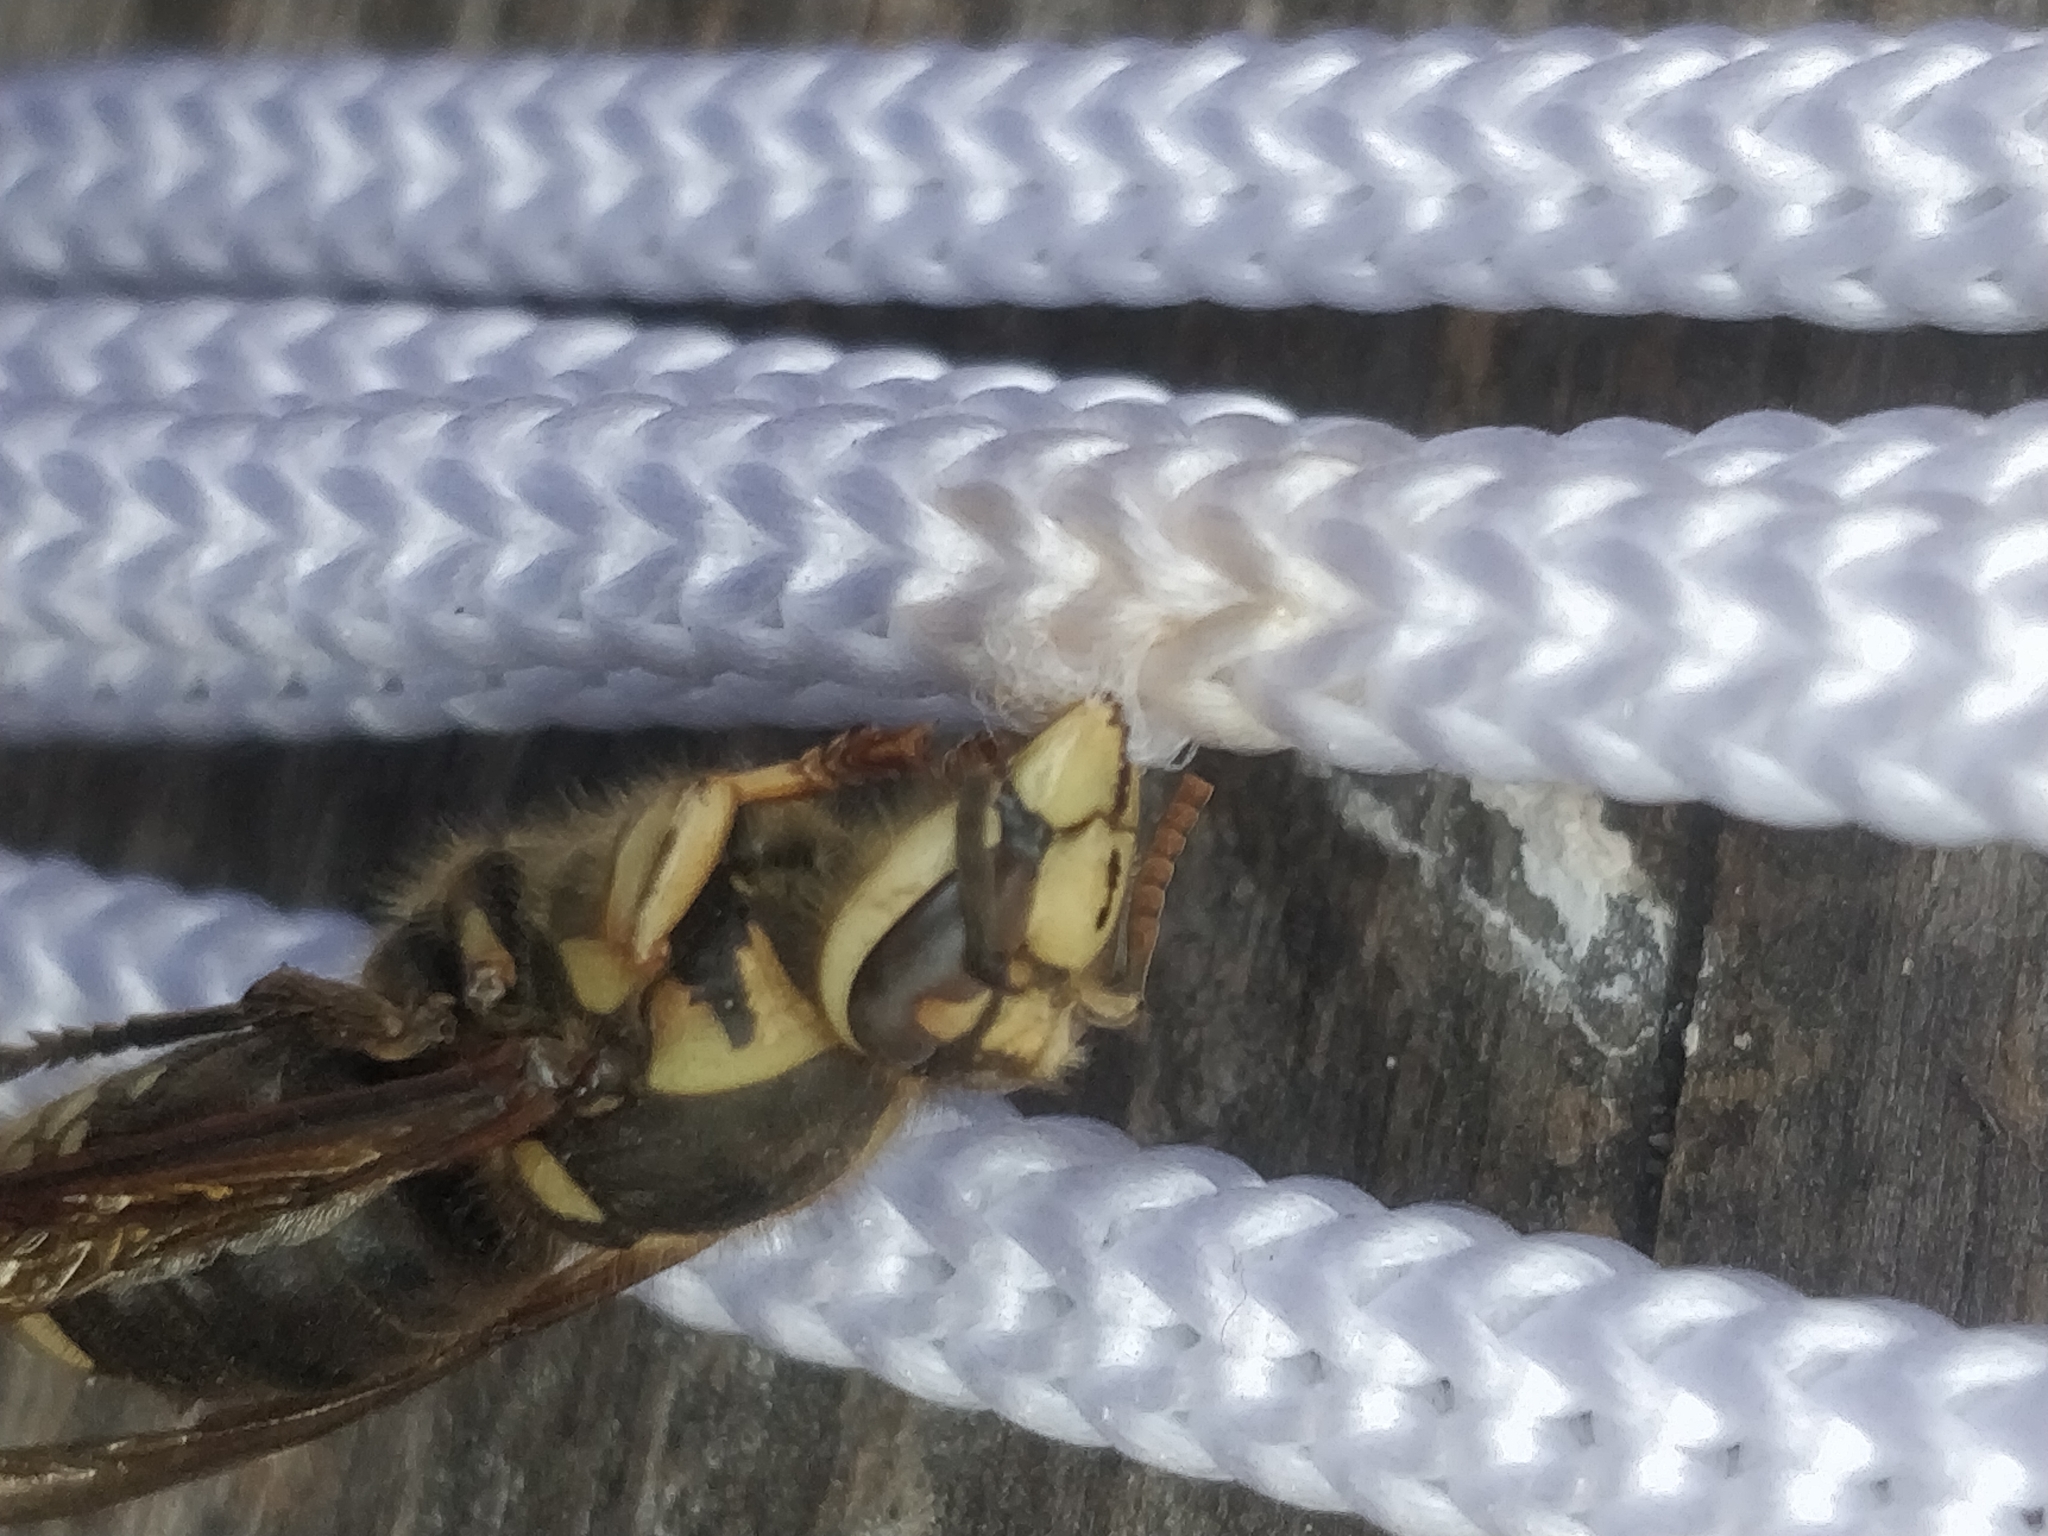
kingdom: Animalia
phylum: Arthropoda
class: Insecta
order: Hymenoptera
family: Vespidae
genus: Dolichovespula
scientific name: Dolichovespula maculata
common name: Bald-faced hornet
